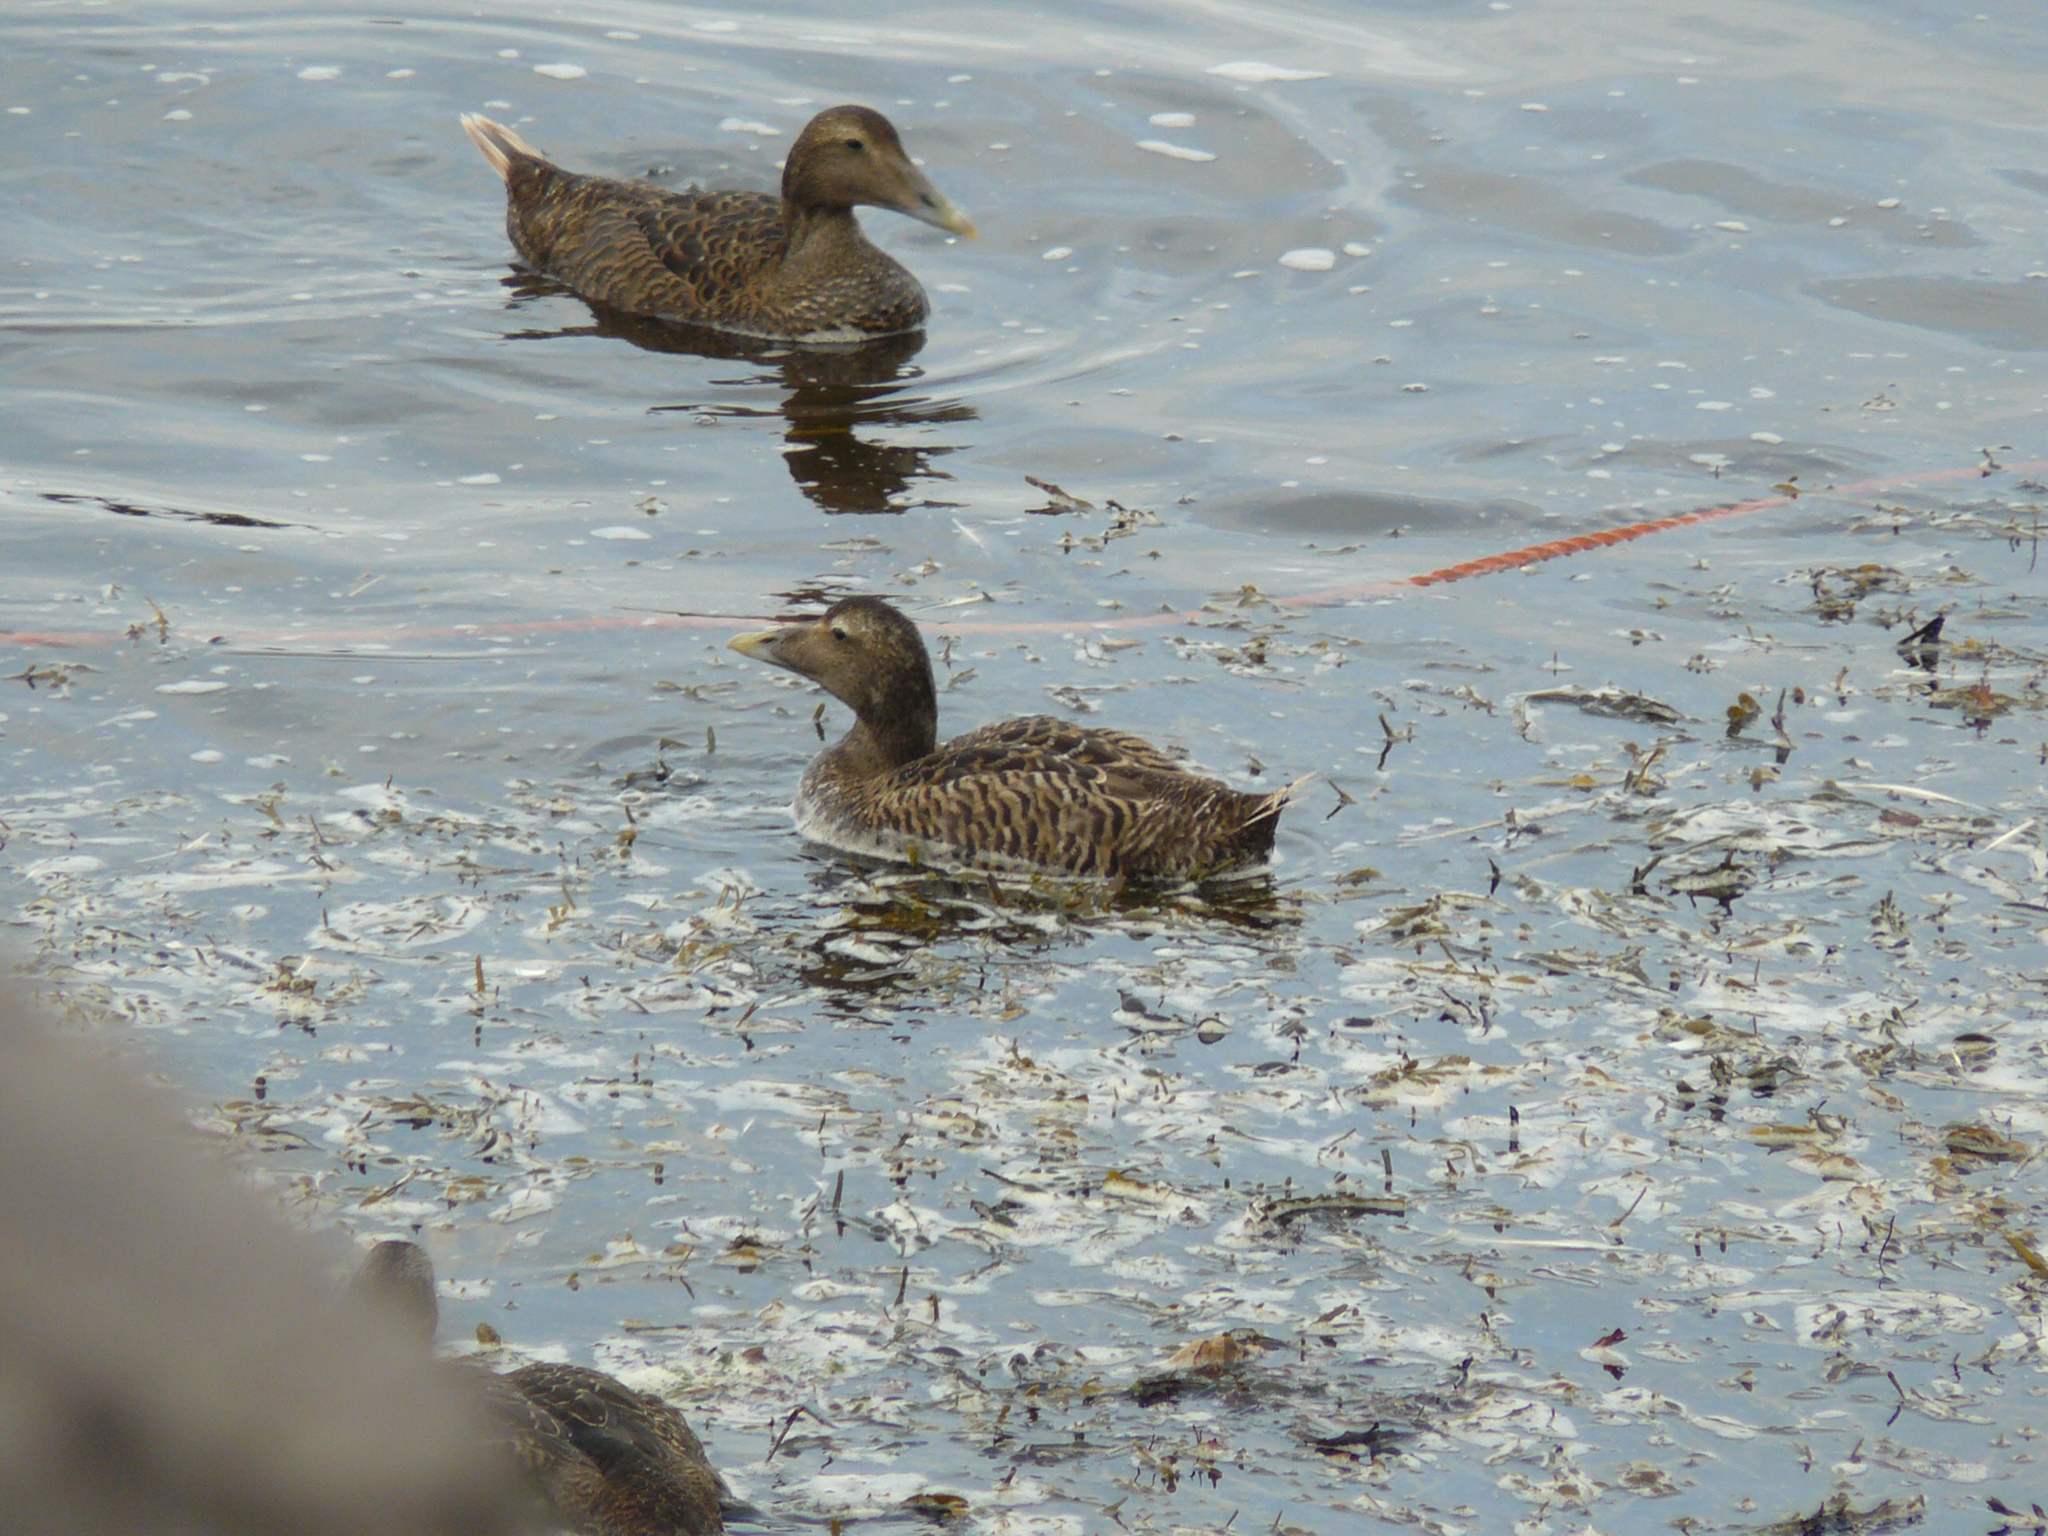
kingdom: Animalia
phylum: Chordata
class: Aves
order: Anseriformes
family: Anatidae
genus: Somateria
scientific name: Somateria mollissima
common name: Common eider
